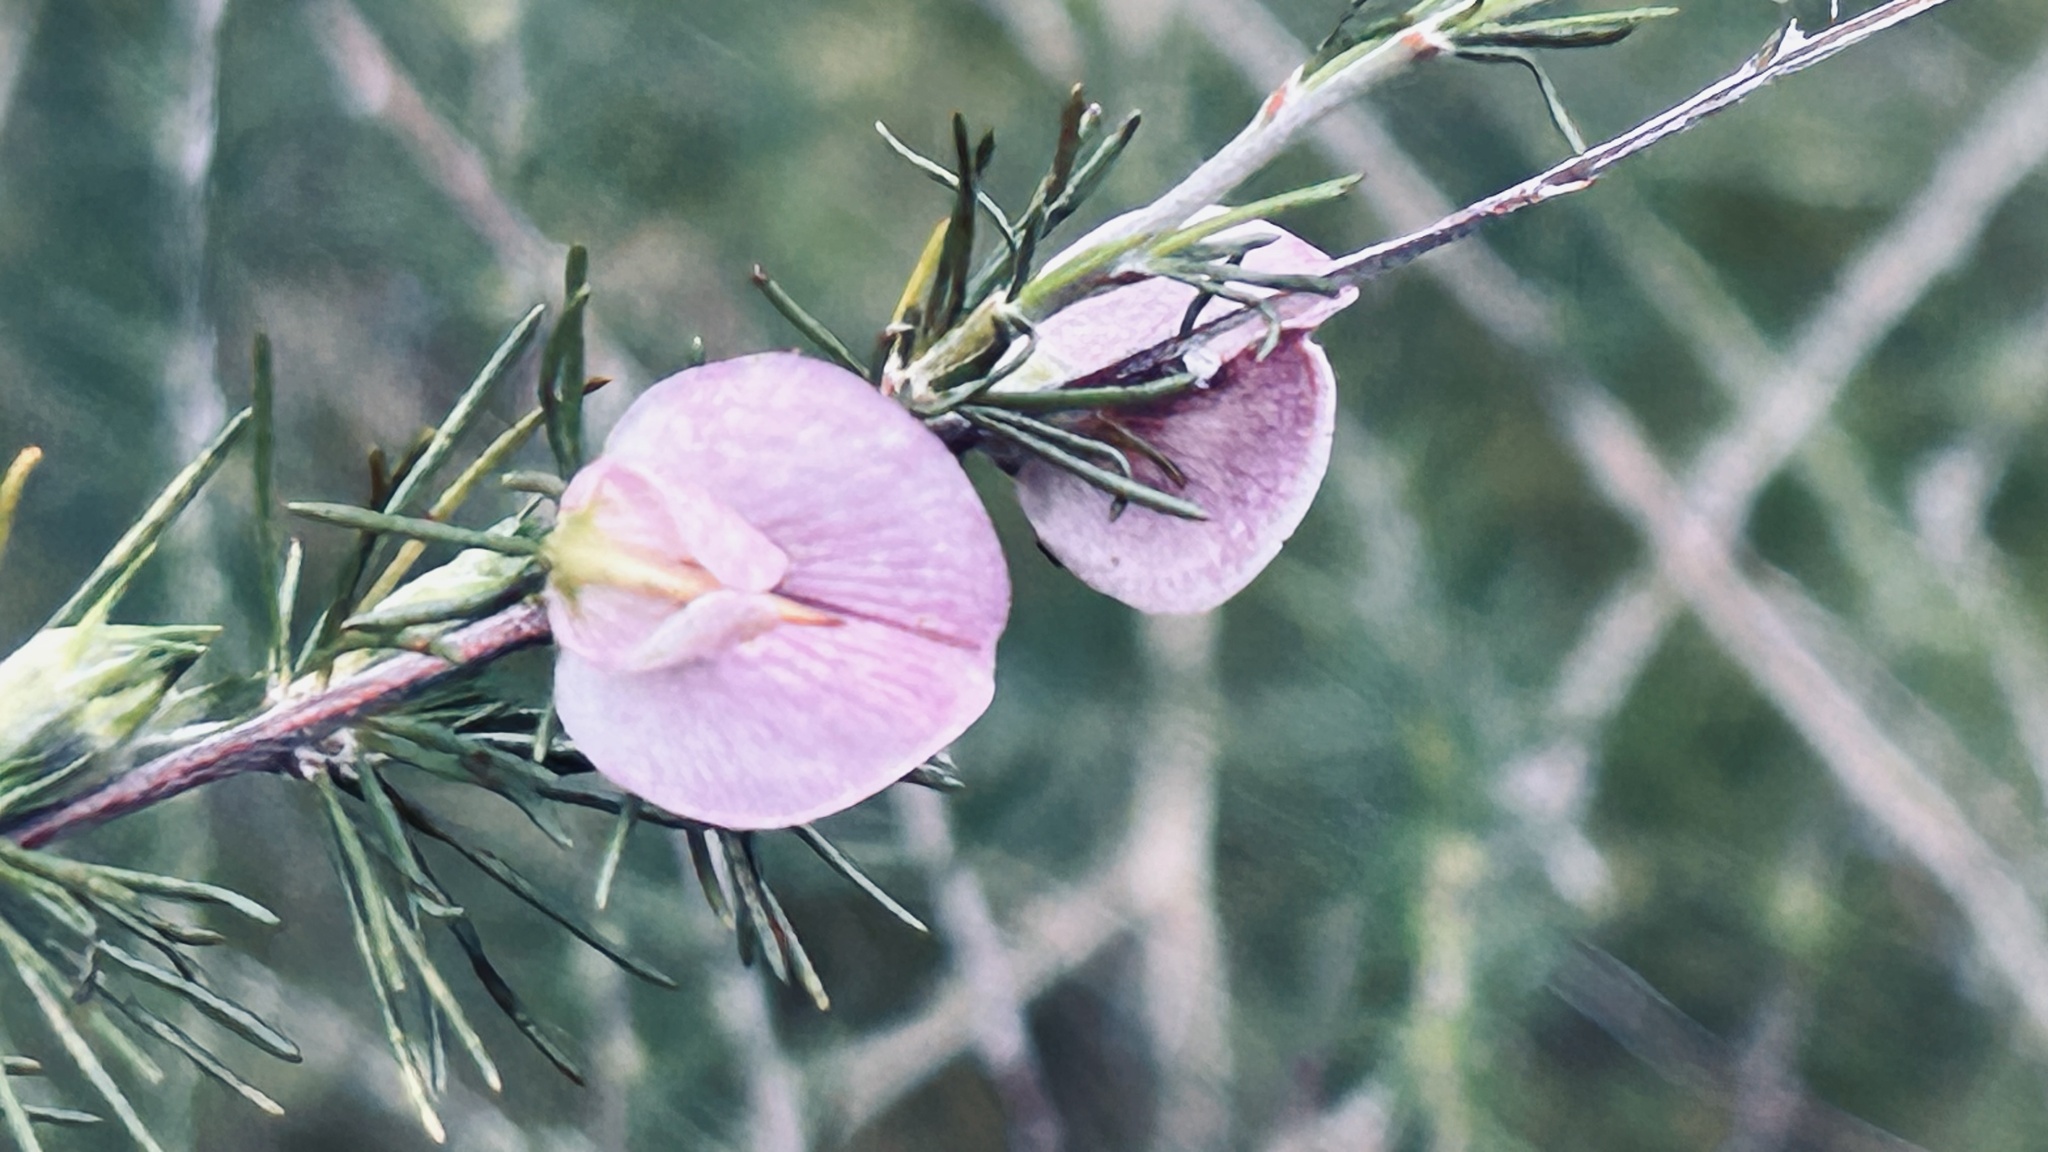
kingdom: Plantae
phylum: Tracheophyta
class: Magnoliopsida
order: Fabales
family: Fabaceae
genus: Aspalathus
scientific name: Aspalathus willdenowiana
